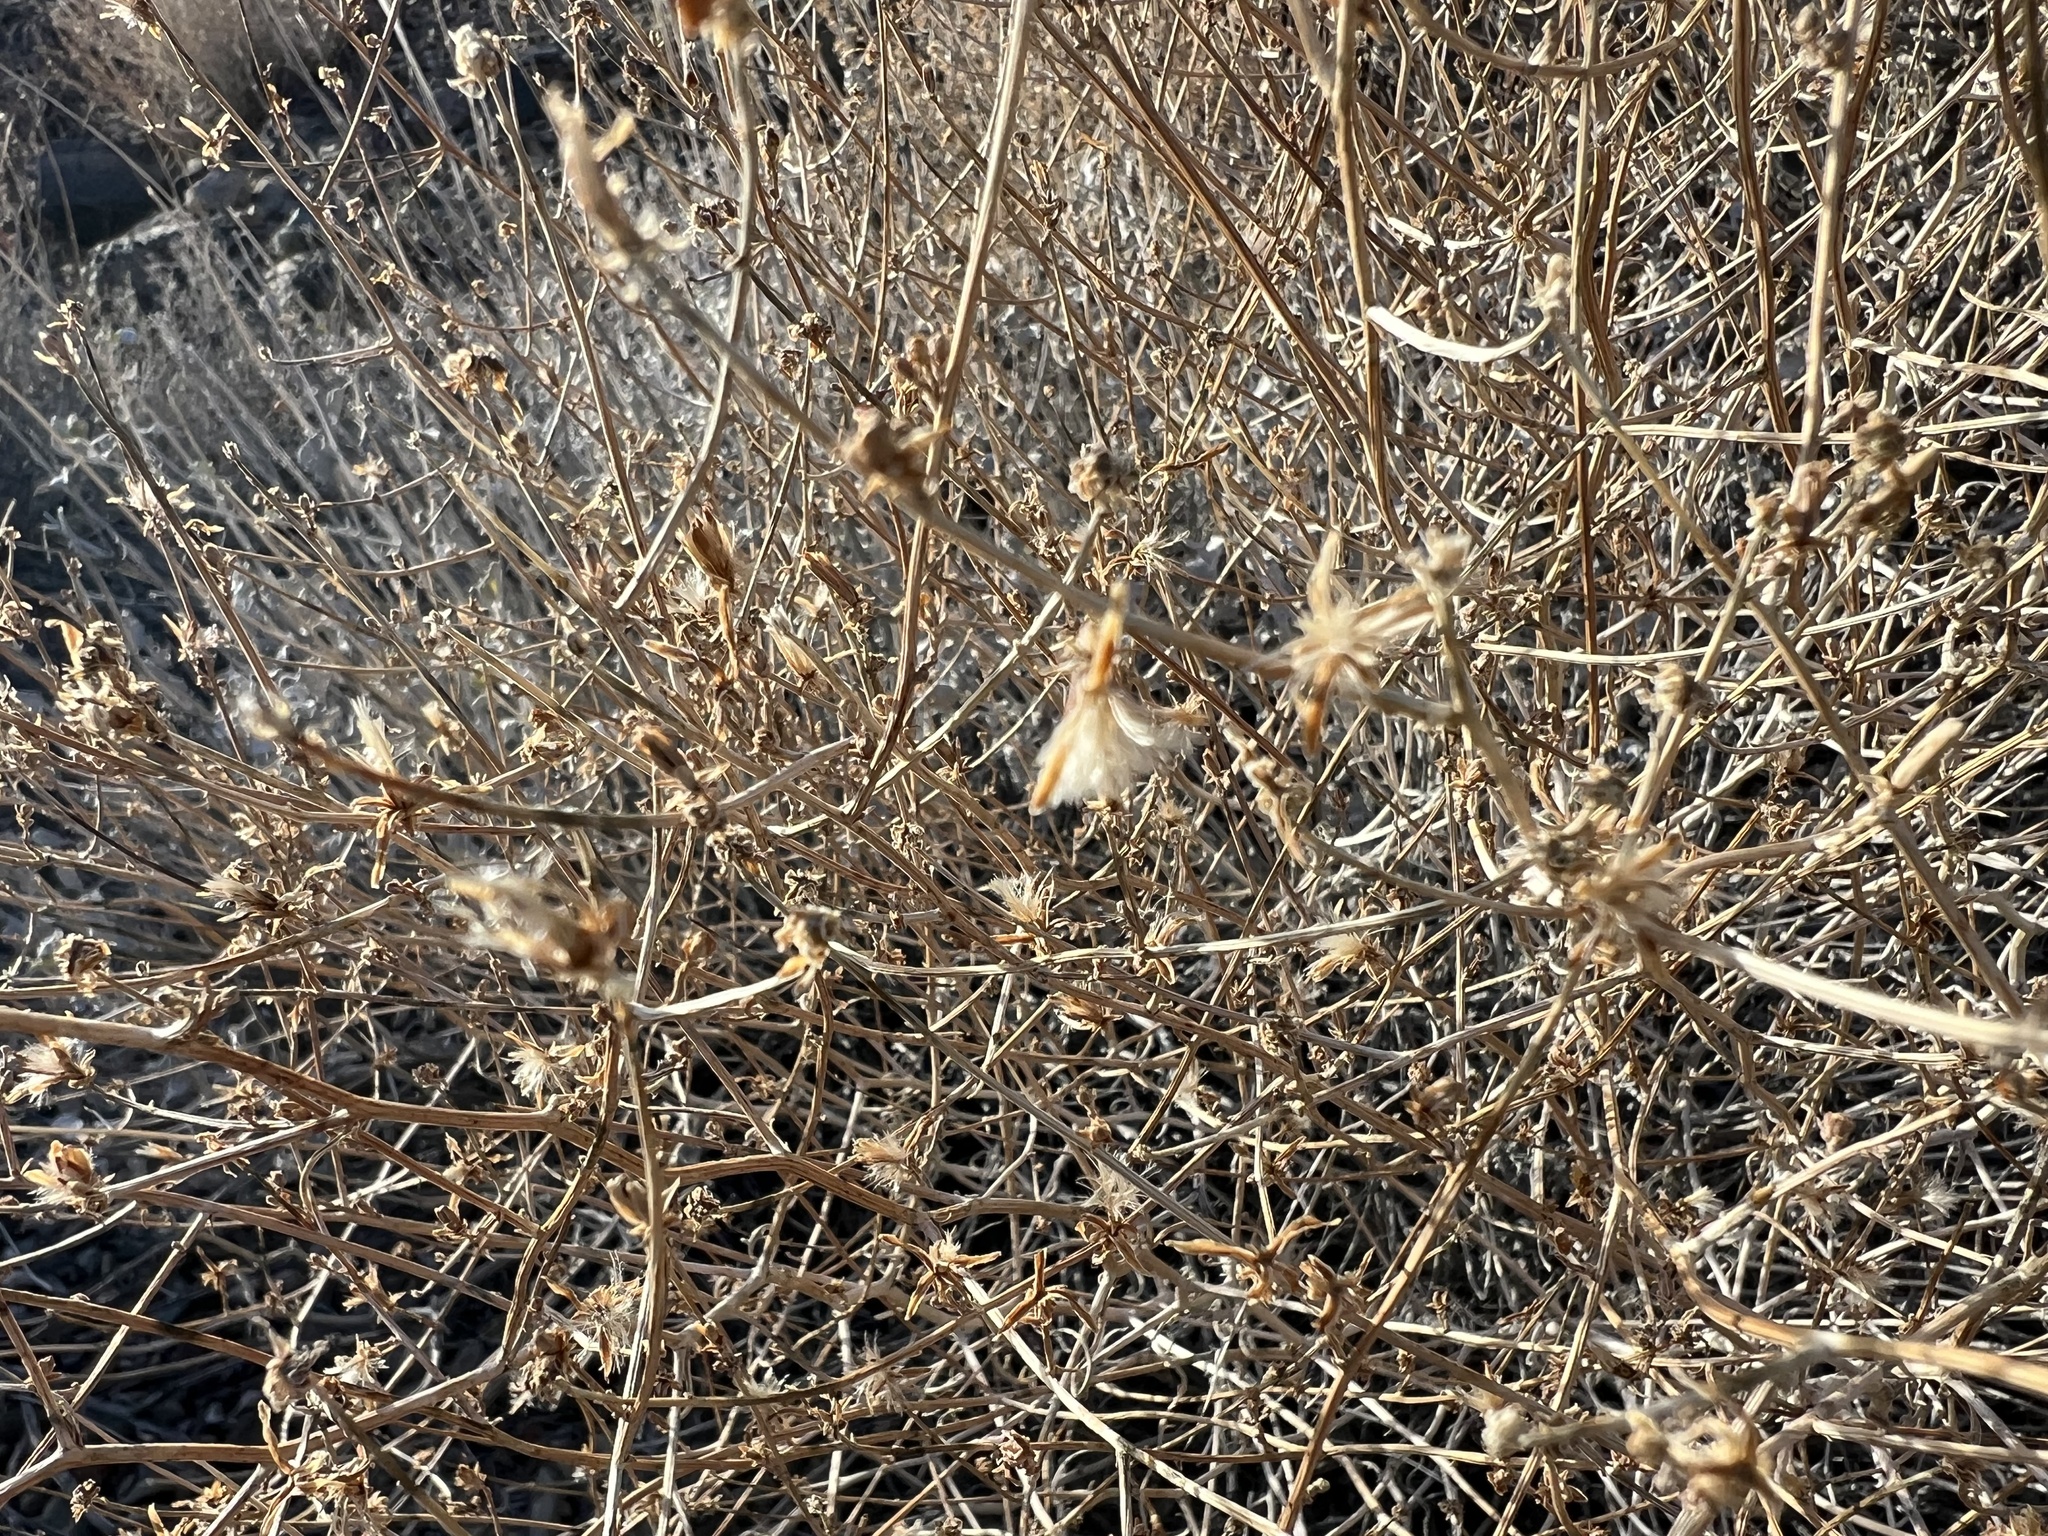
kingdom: Plantae
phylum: Tracheophyta
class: Magnoliopsida
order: Asterales
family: Asteraceae
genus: Stephanomeria
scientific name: Stephanomeria pauciflora
